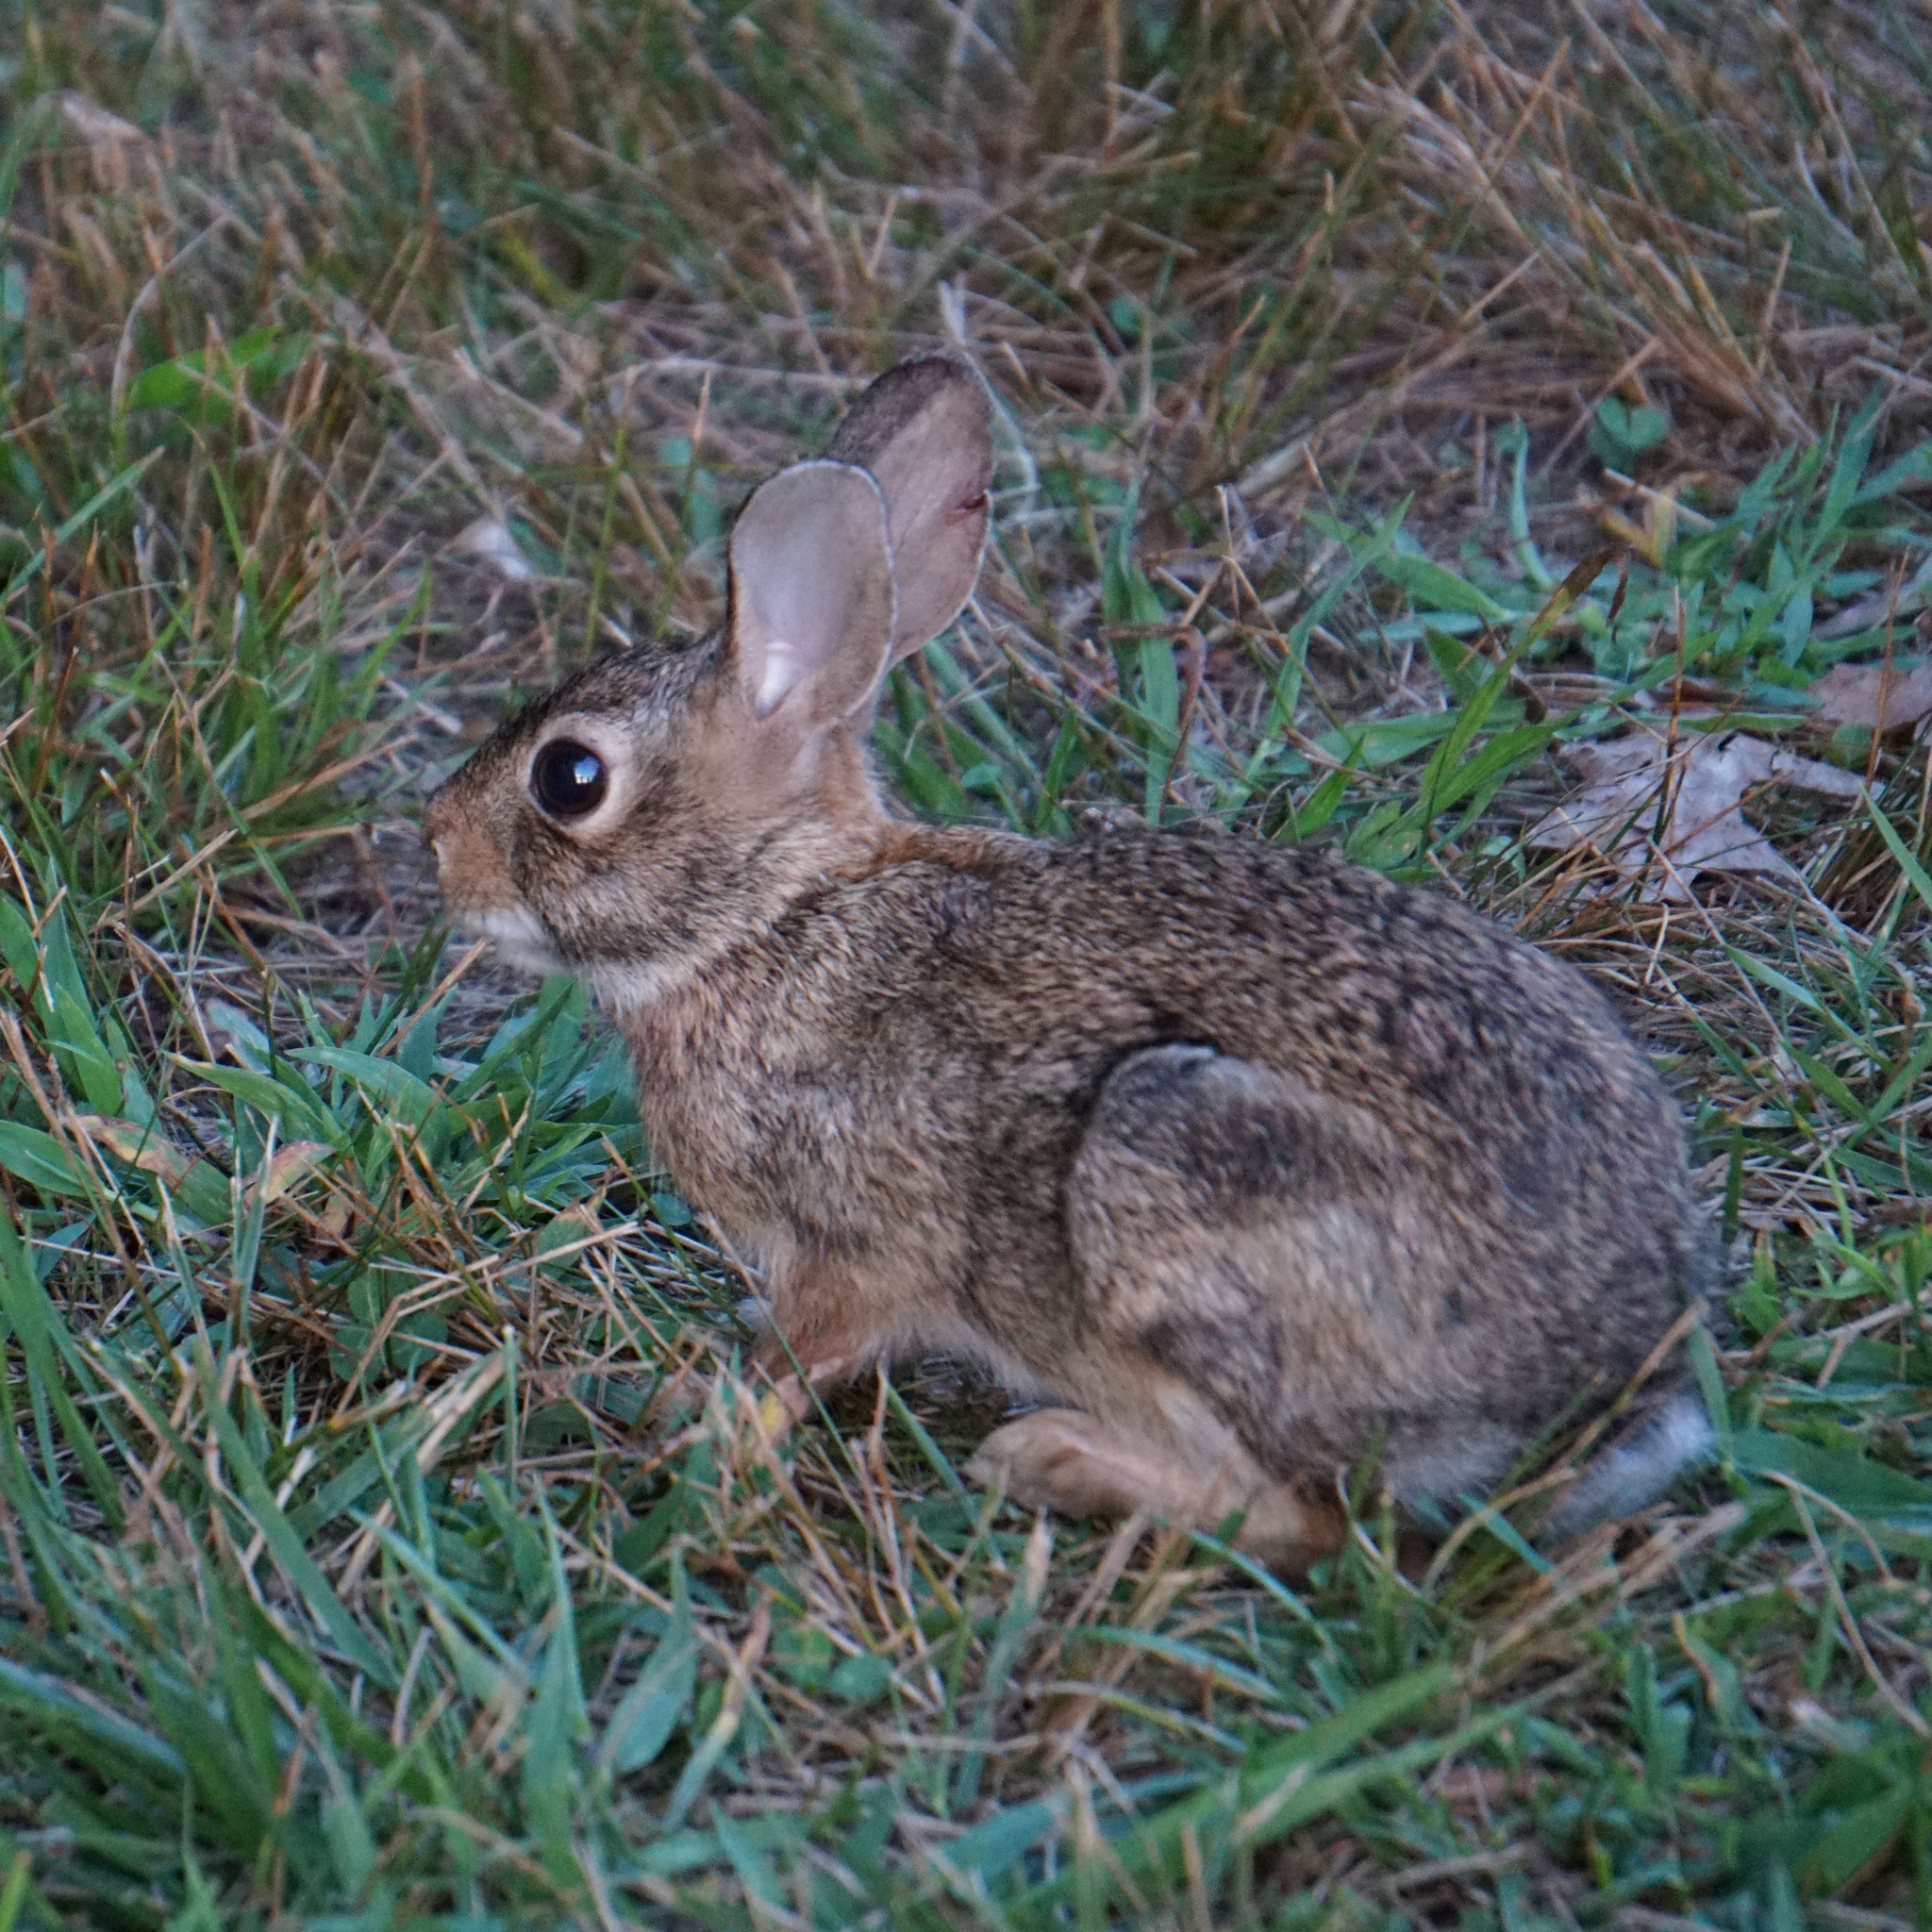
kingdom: Animalia
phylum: Chordata
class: Mammalia
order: Lagomorpha
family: Leporidae
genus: Sylvilagus
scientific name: Sylvilagus floridanus
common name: Eastern cottontail
